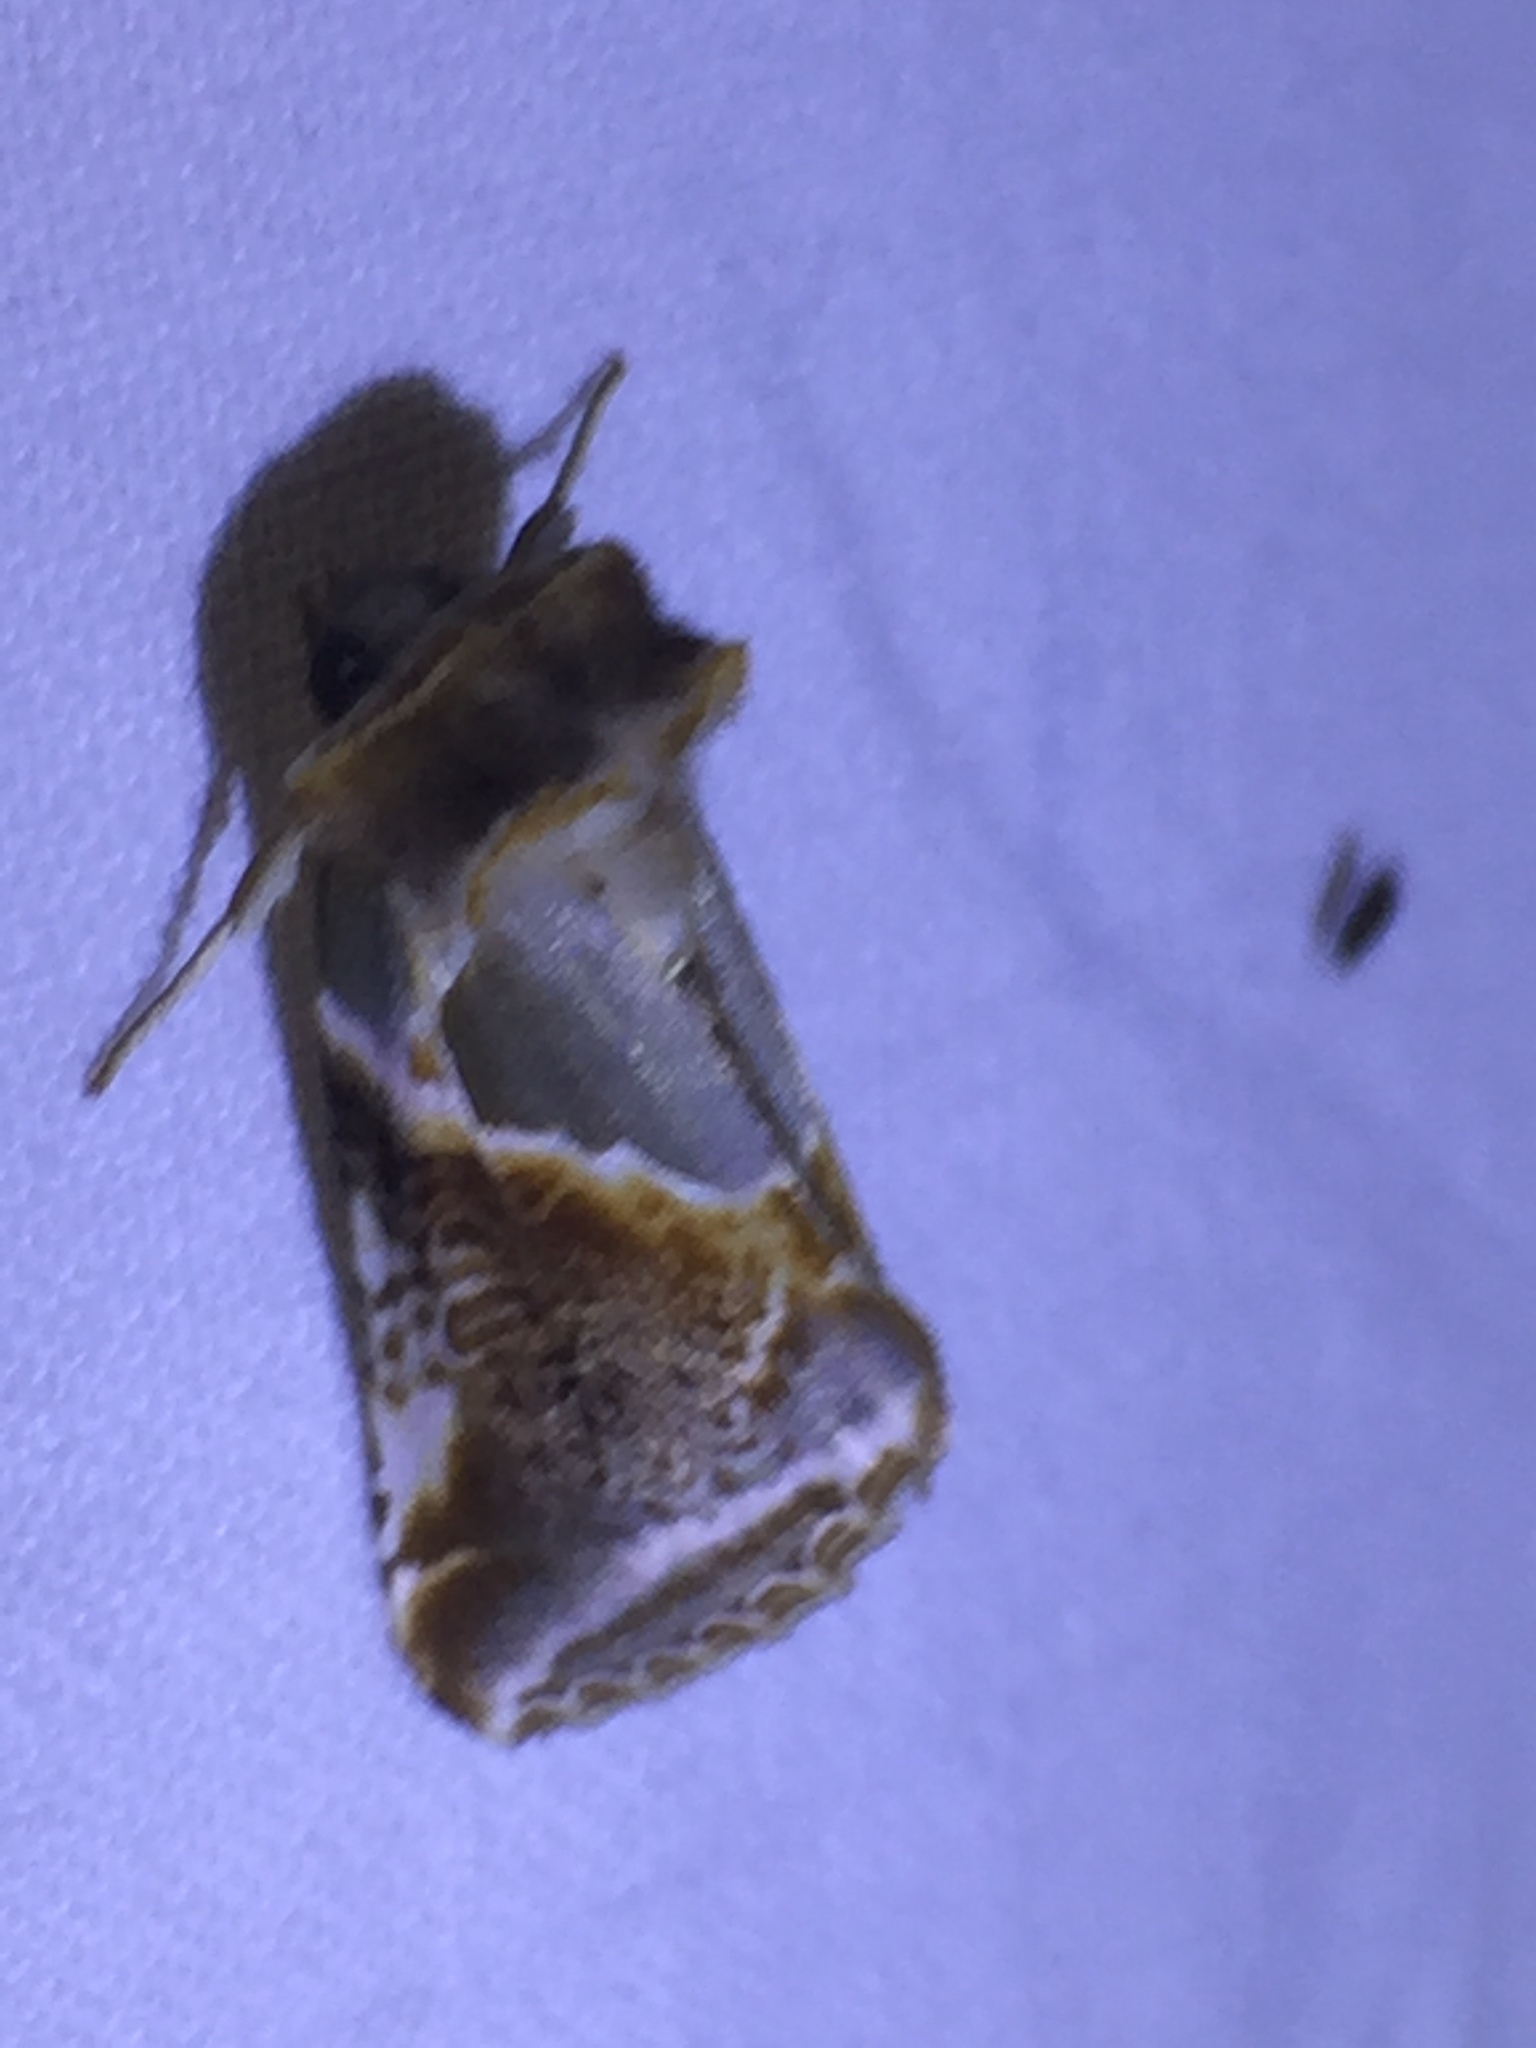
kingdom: Animalia
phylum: Arthropoda
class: Insecta
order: Lepidoptera
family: Drepanidae
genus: Habrosyne
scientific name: Habrosyne pyritoides
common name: Buff arches
